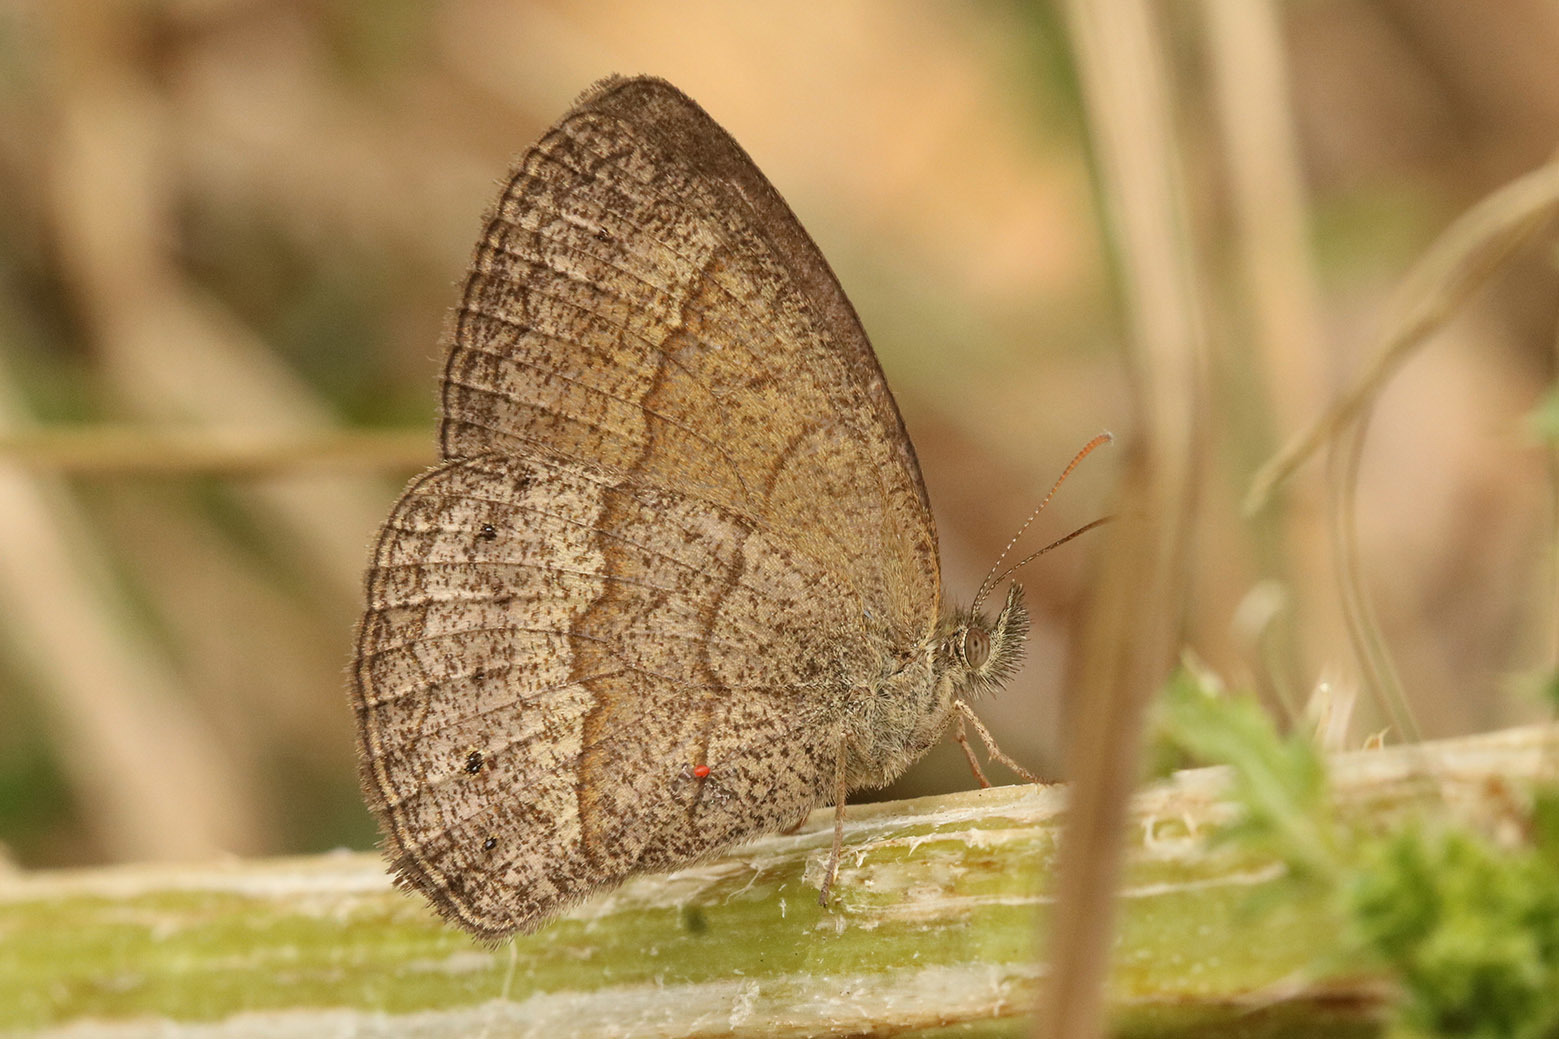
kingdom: Animalia
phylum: Arthropoda
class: Insecta
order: Lepidoptera
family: Nymphalidae
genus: Yphthimoides
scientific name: Yphthimoides celmis
